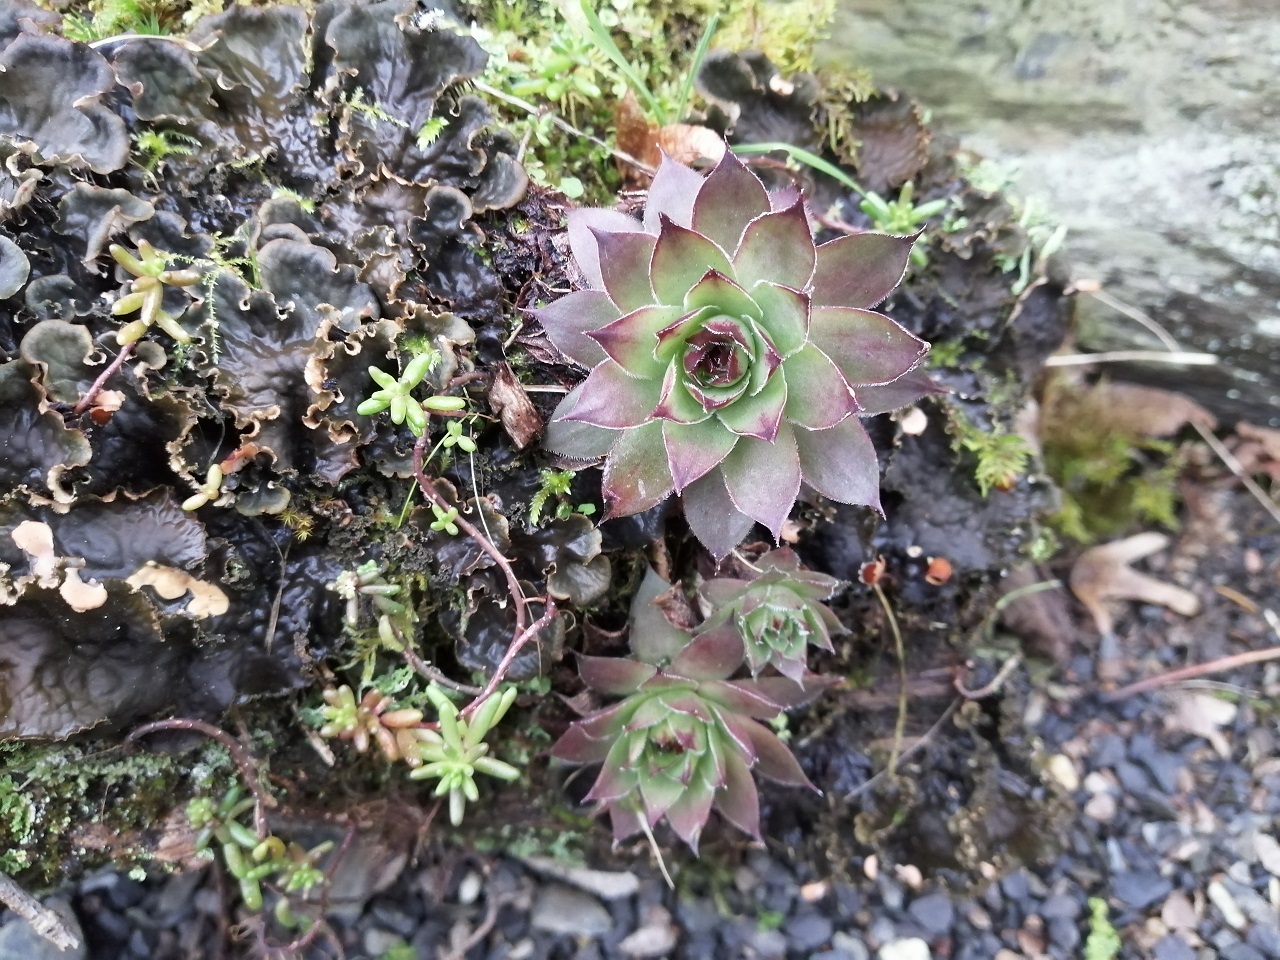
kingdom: Plantae
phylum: Tracheophyta
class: Magnoliopsida
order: Saxifragales
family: Crassulaceae
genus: Sempervivum
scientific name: Sempervivum tectorum
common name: House-leek
